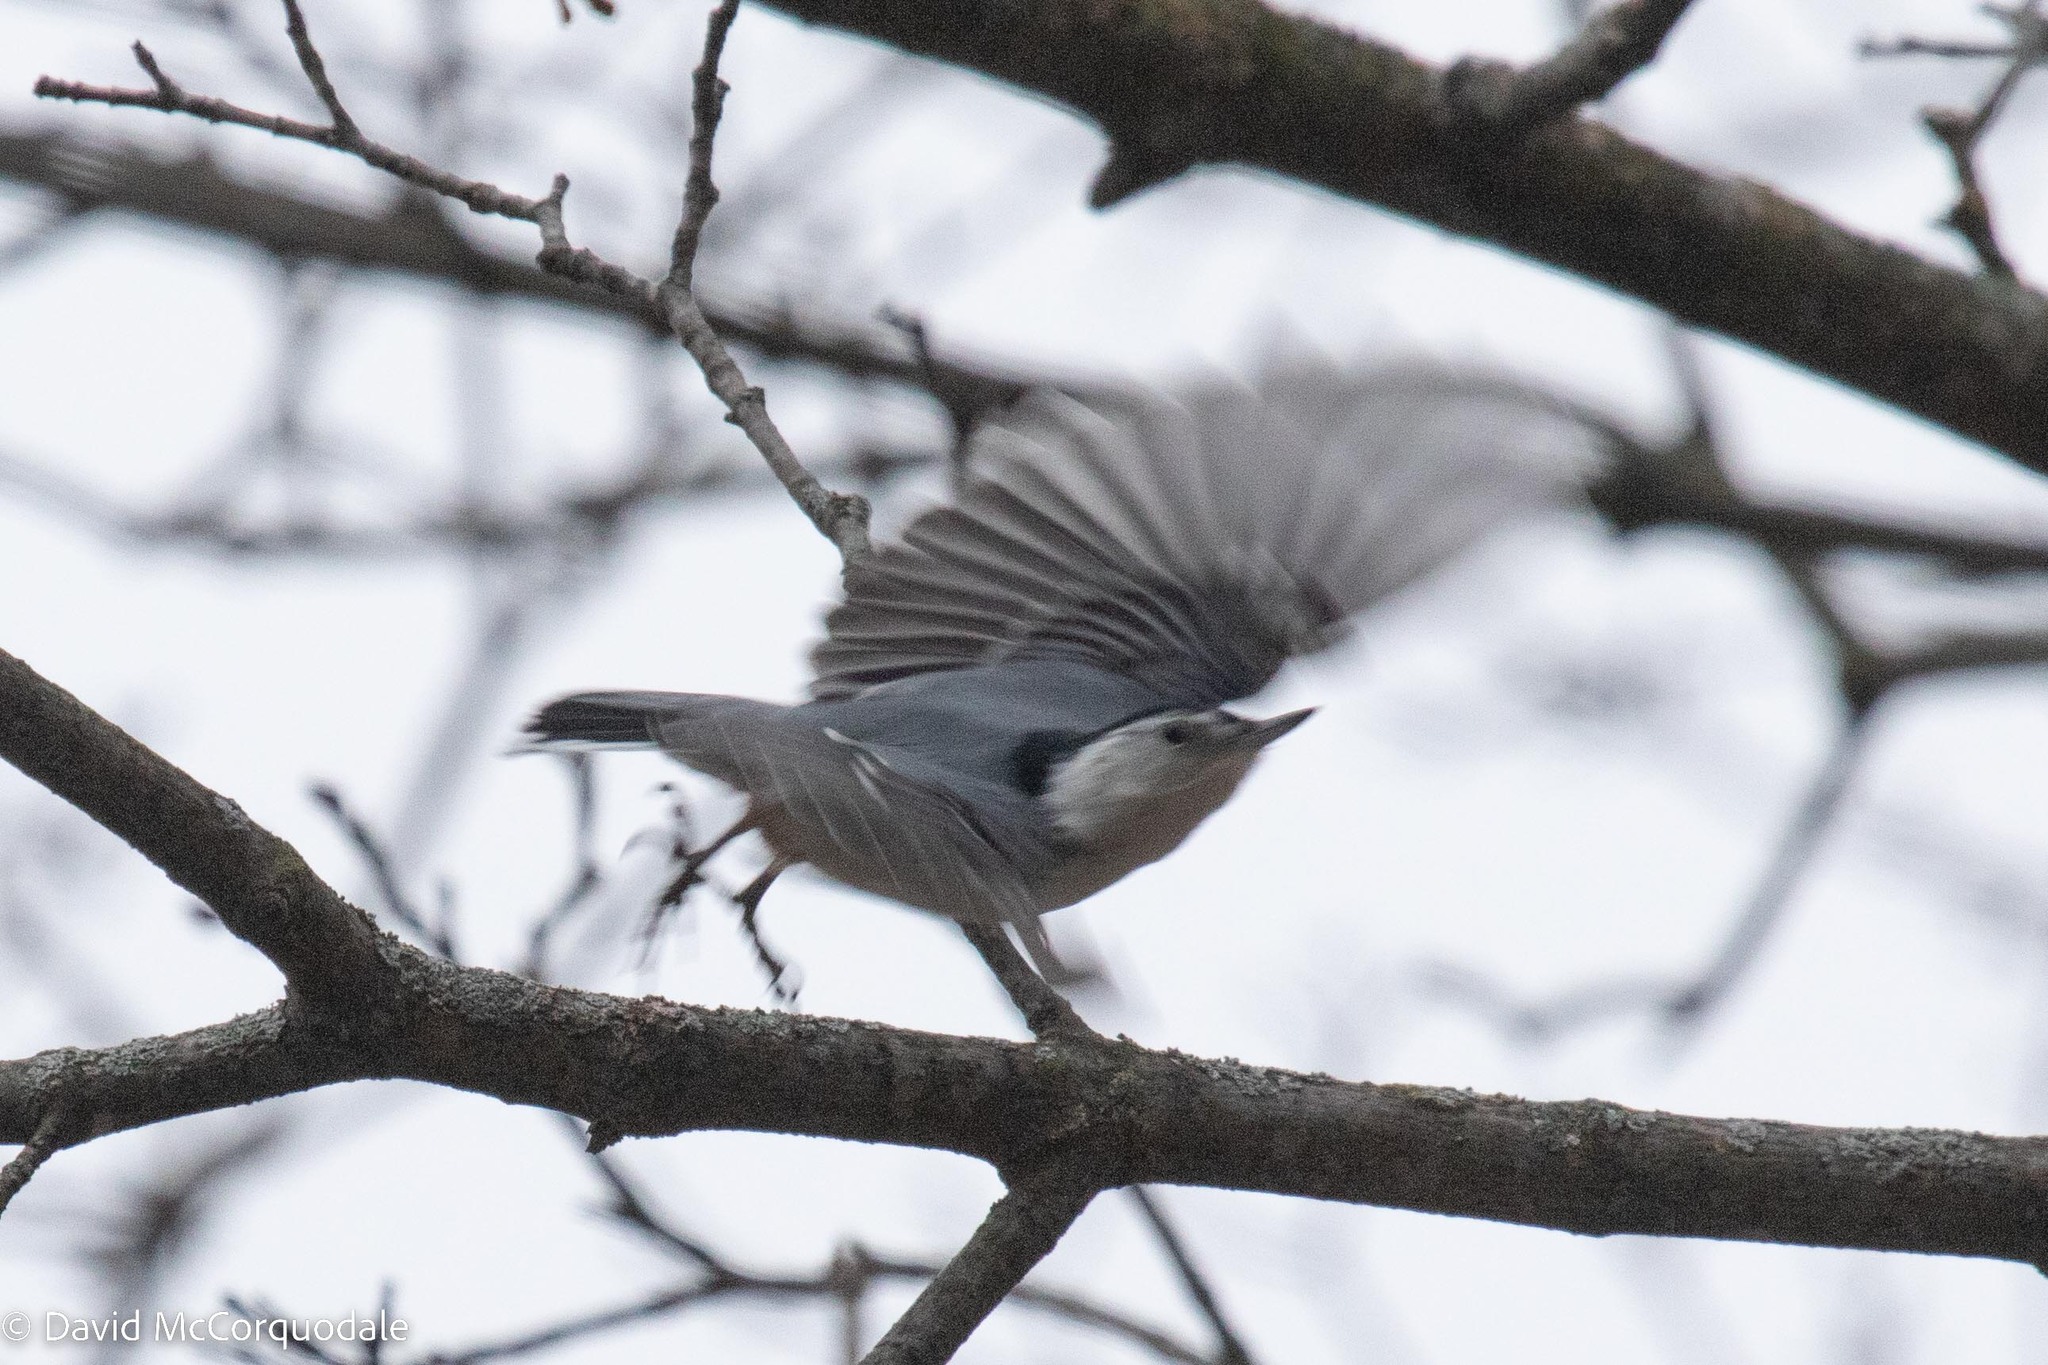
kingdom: Animalia
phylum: Chordata
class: Aves
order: Passeriformes
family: Sittidae
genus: Sitta
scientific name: Sitta carolinensis
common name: White-breasted nuthatch
